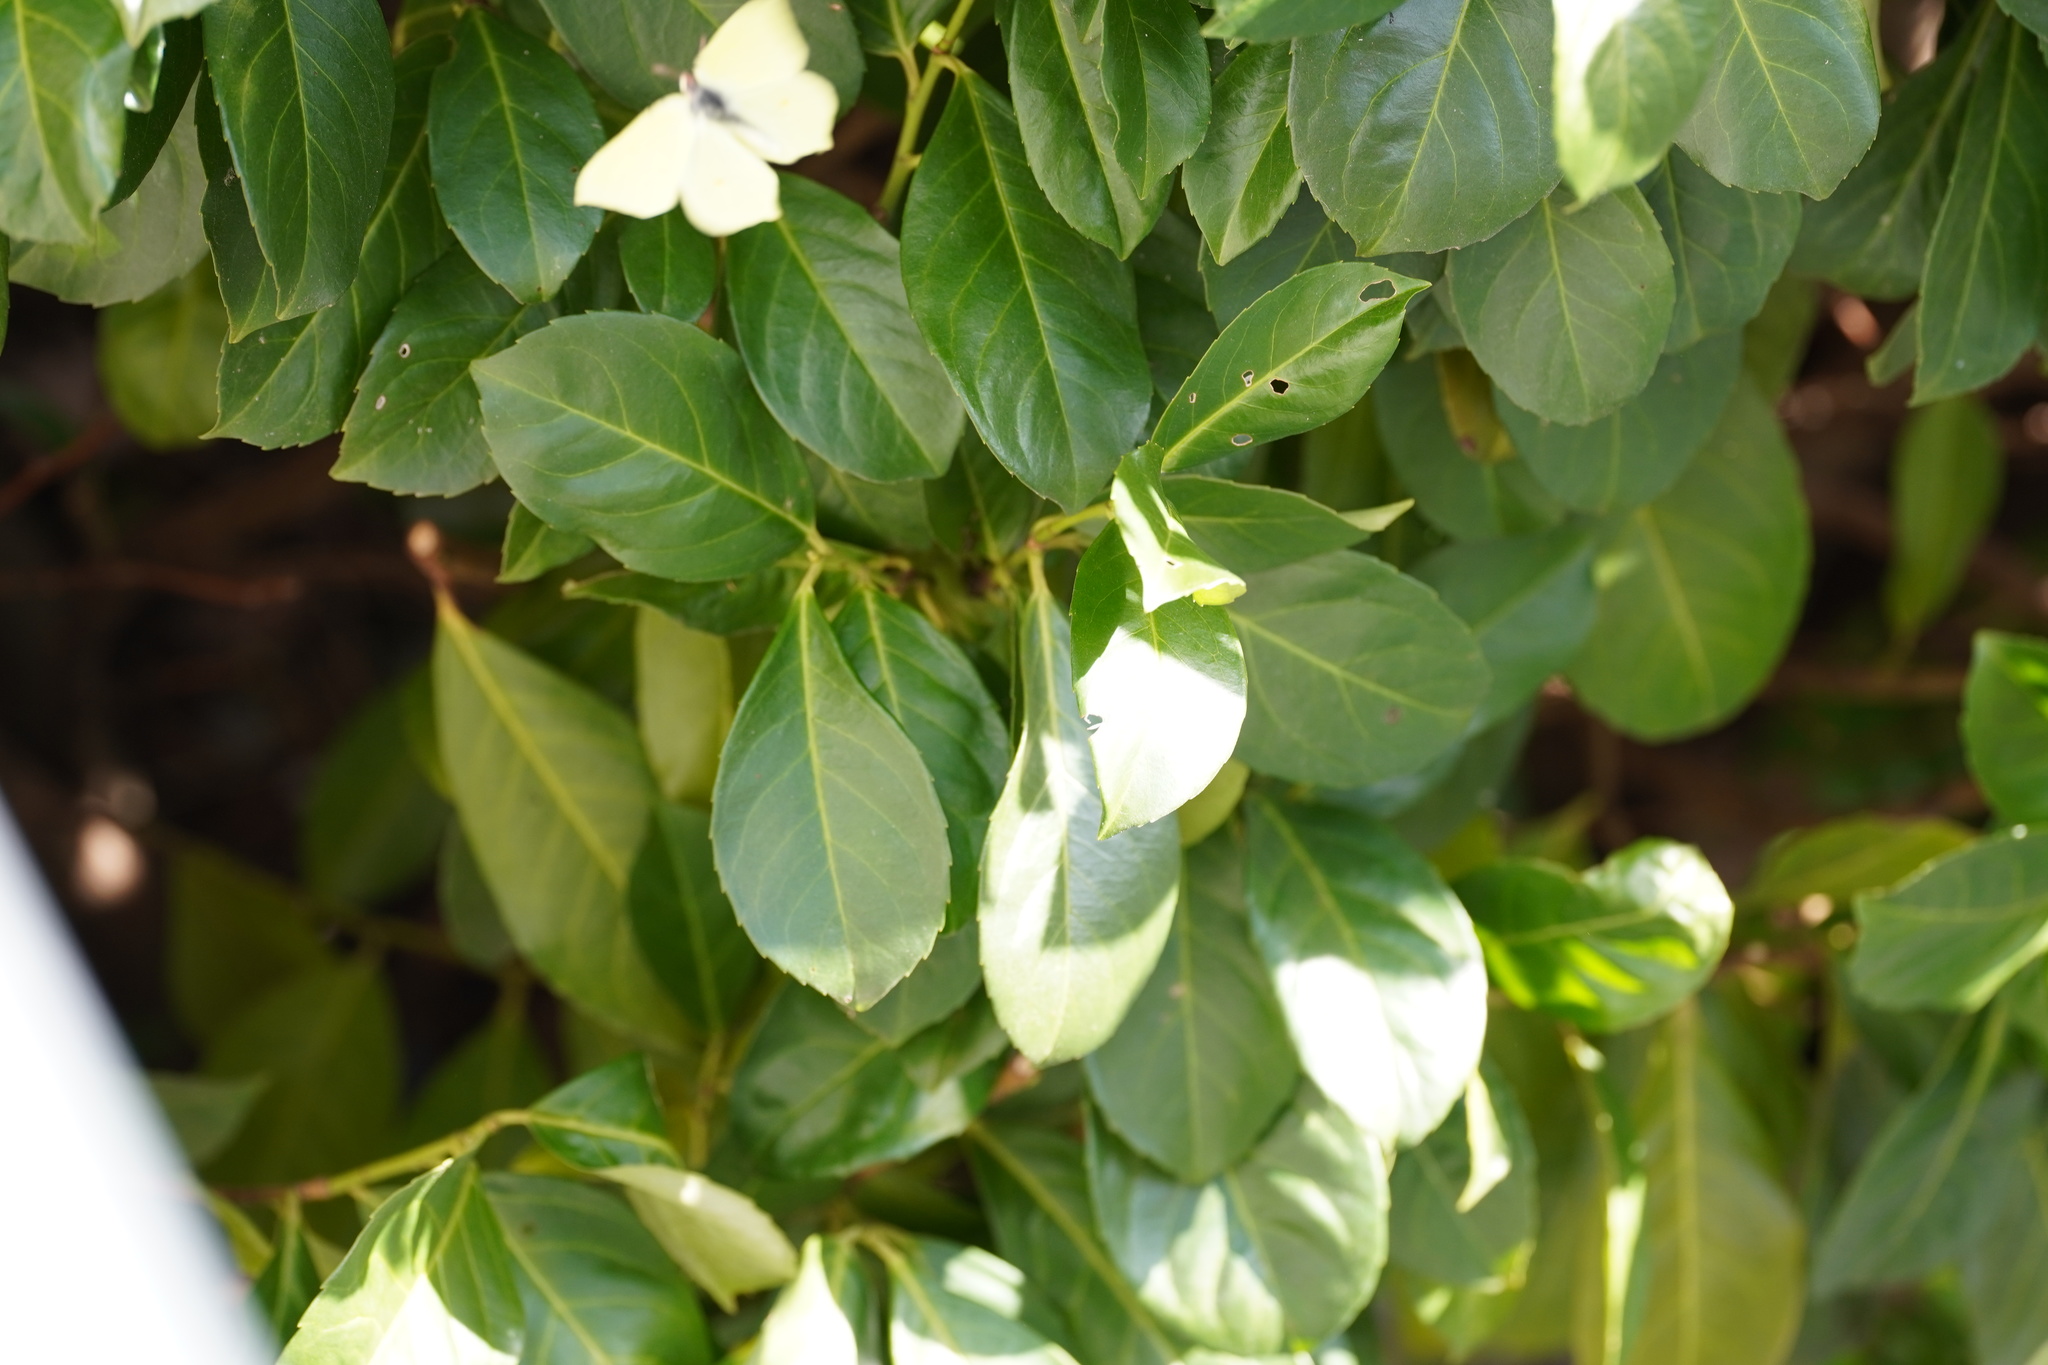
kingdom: Animalia
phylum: Arthropoda
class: Insecta
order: Lepidoptera
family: Pieridae
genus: Gonepteryx
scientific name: Gonepteryx rhamni
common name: Brimstone
